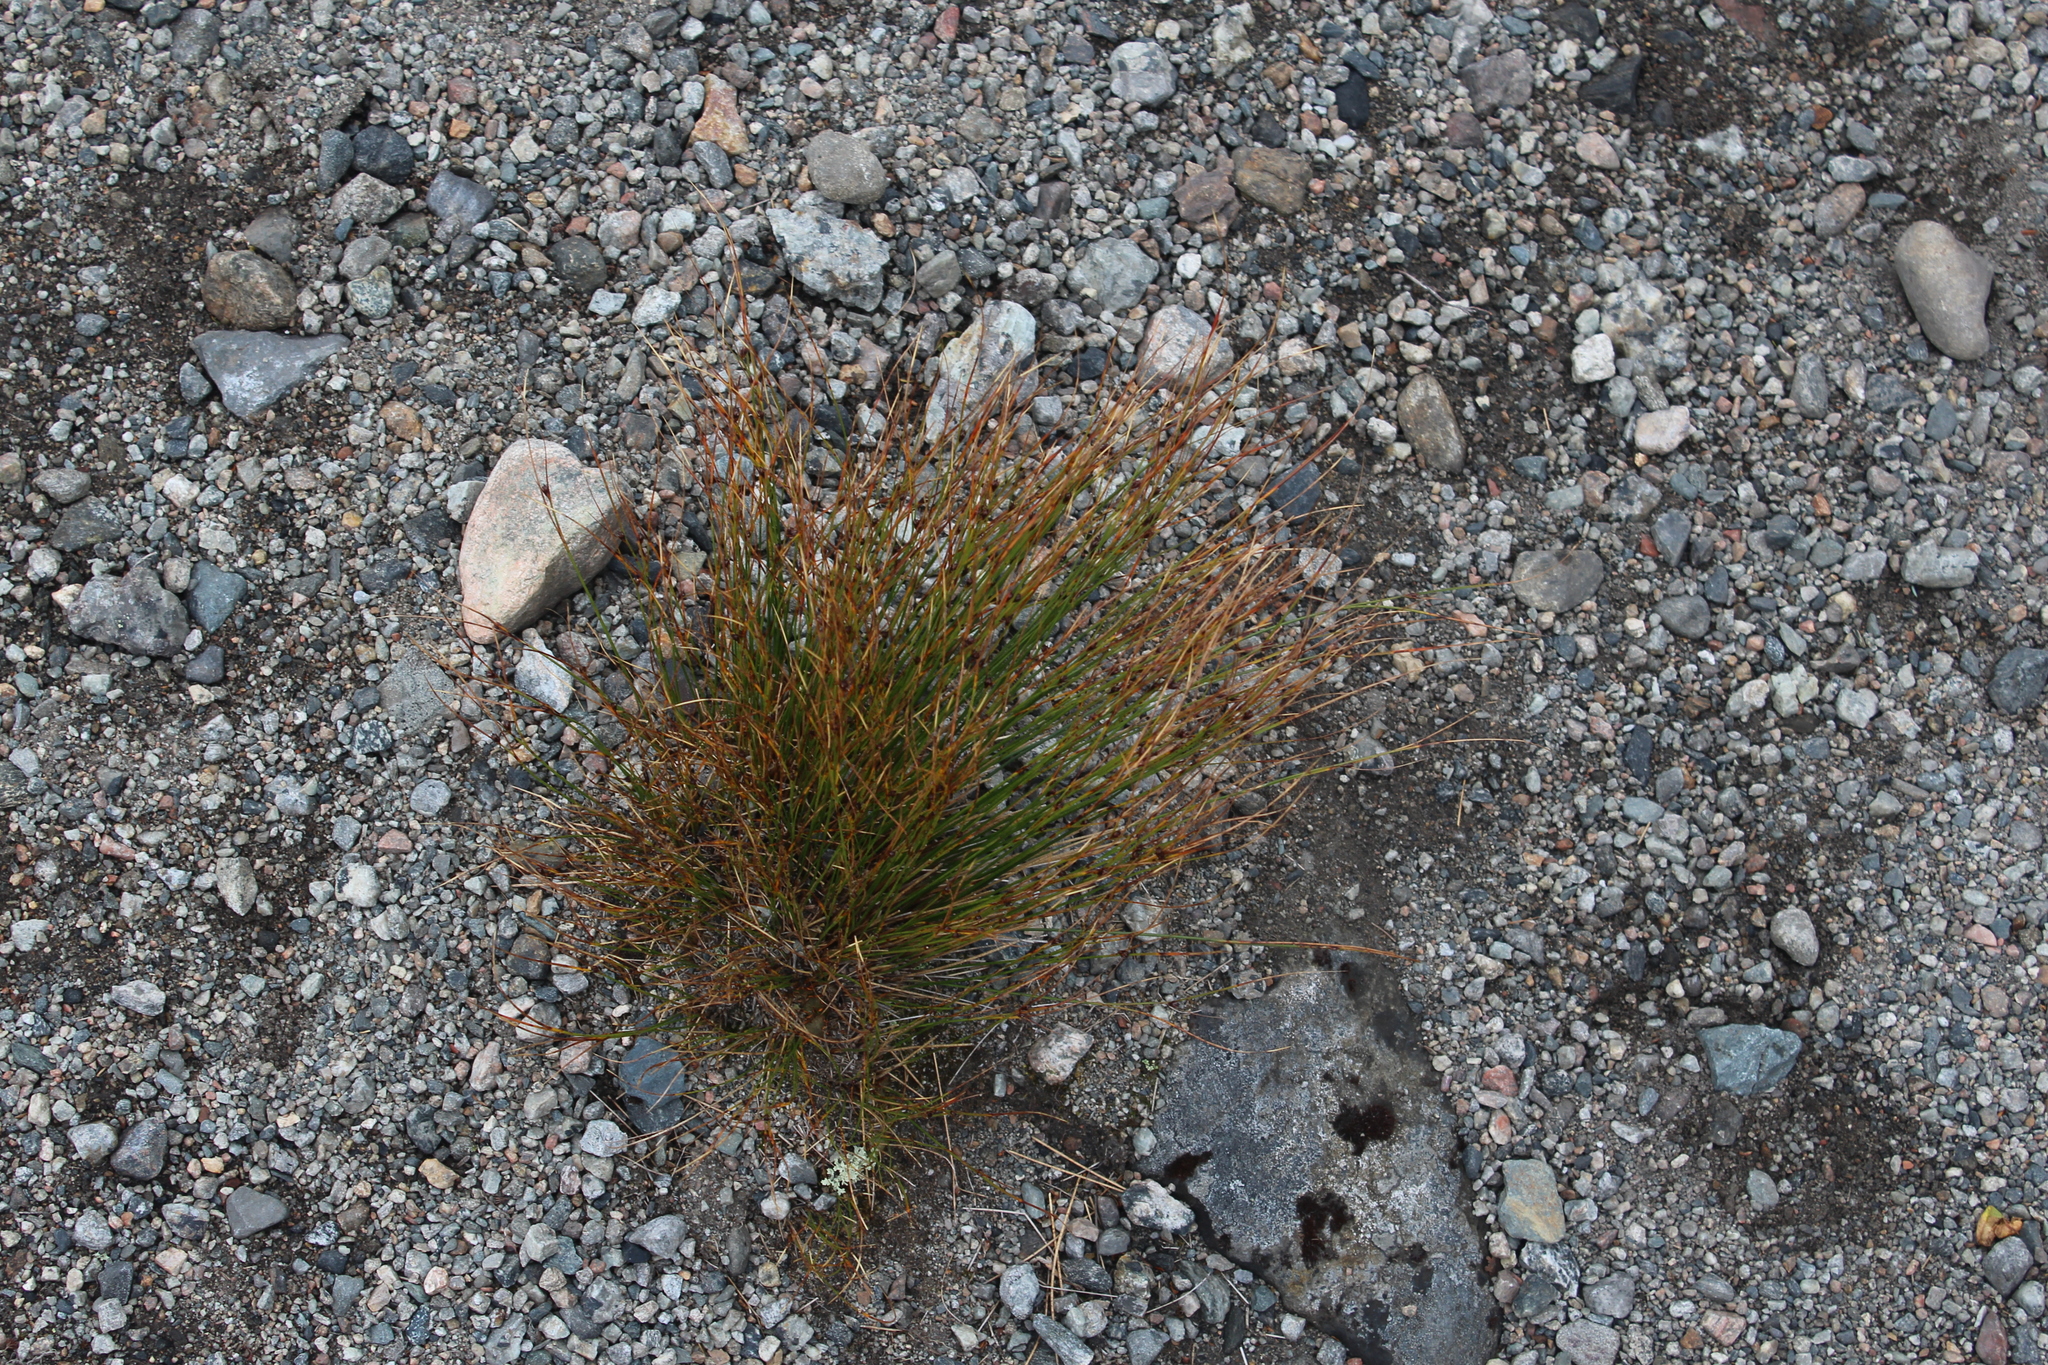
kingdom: Plantae
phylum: Tracheophyta
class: Liliopsida
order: Poales
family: Juncaceae
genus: Oreojuncus
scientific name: Oreojuncus trifidus
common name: Highland rush
